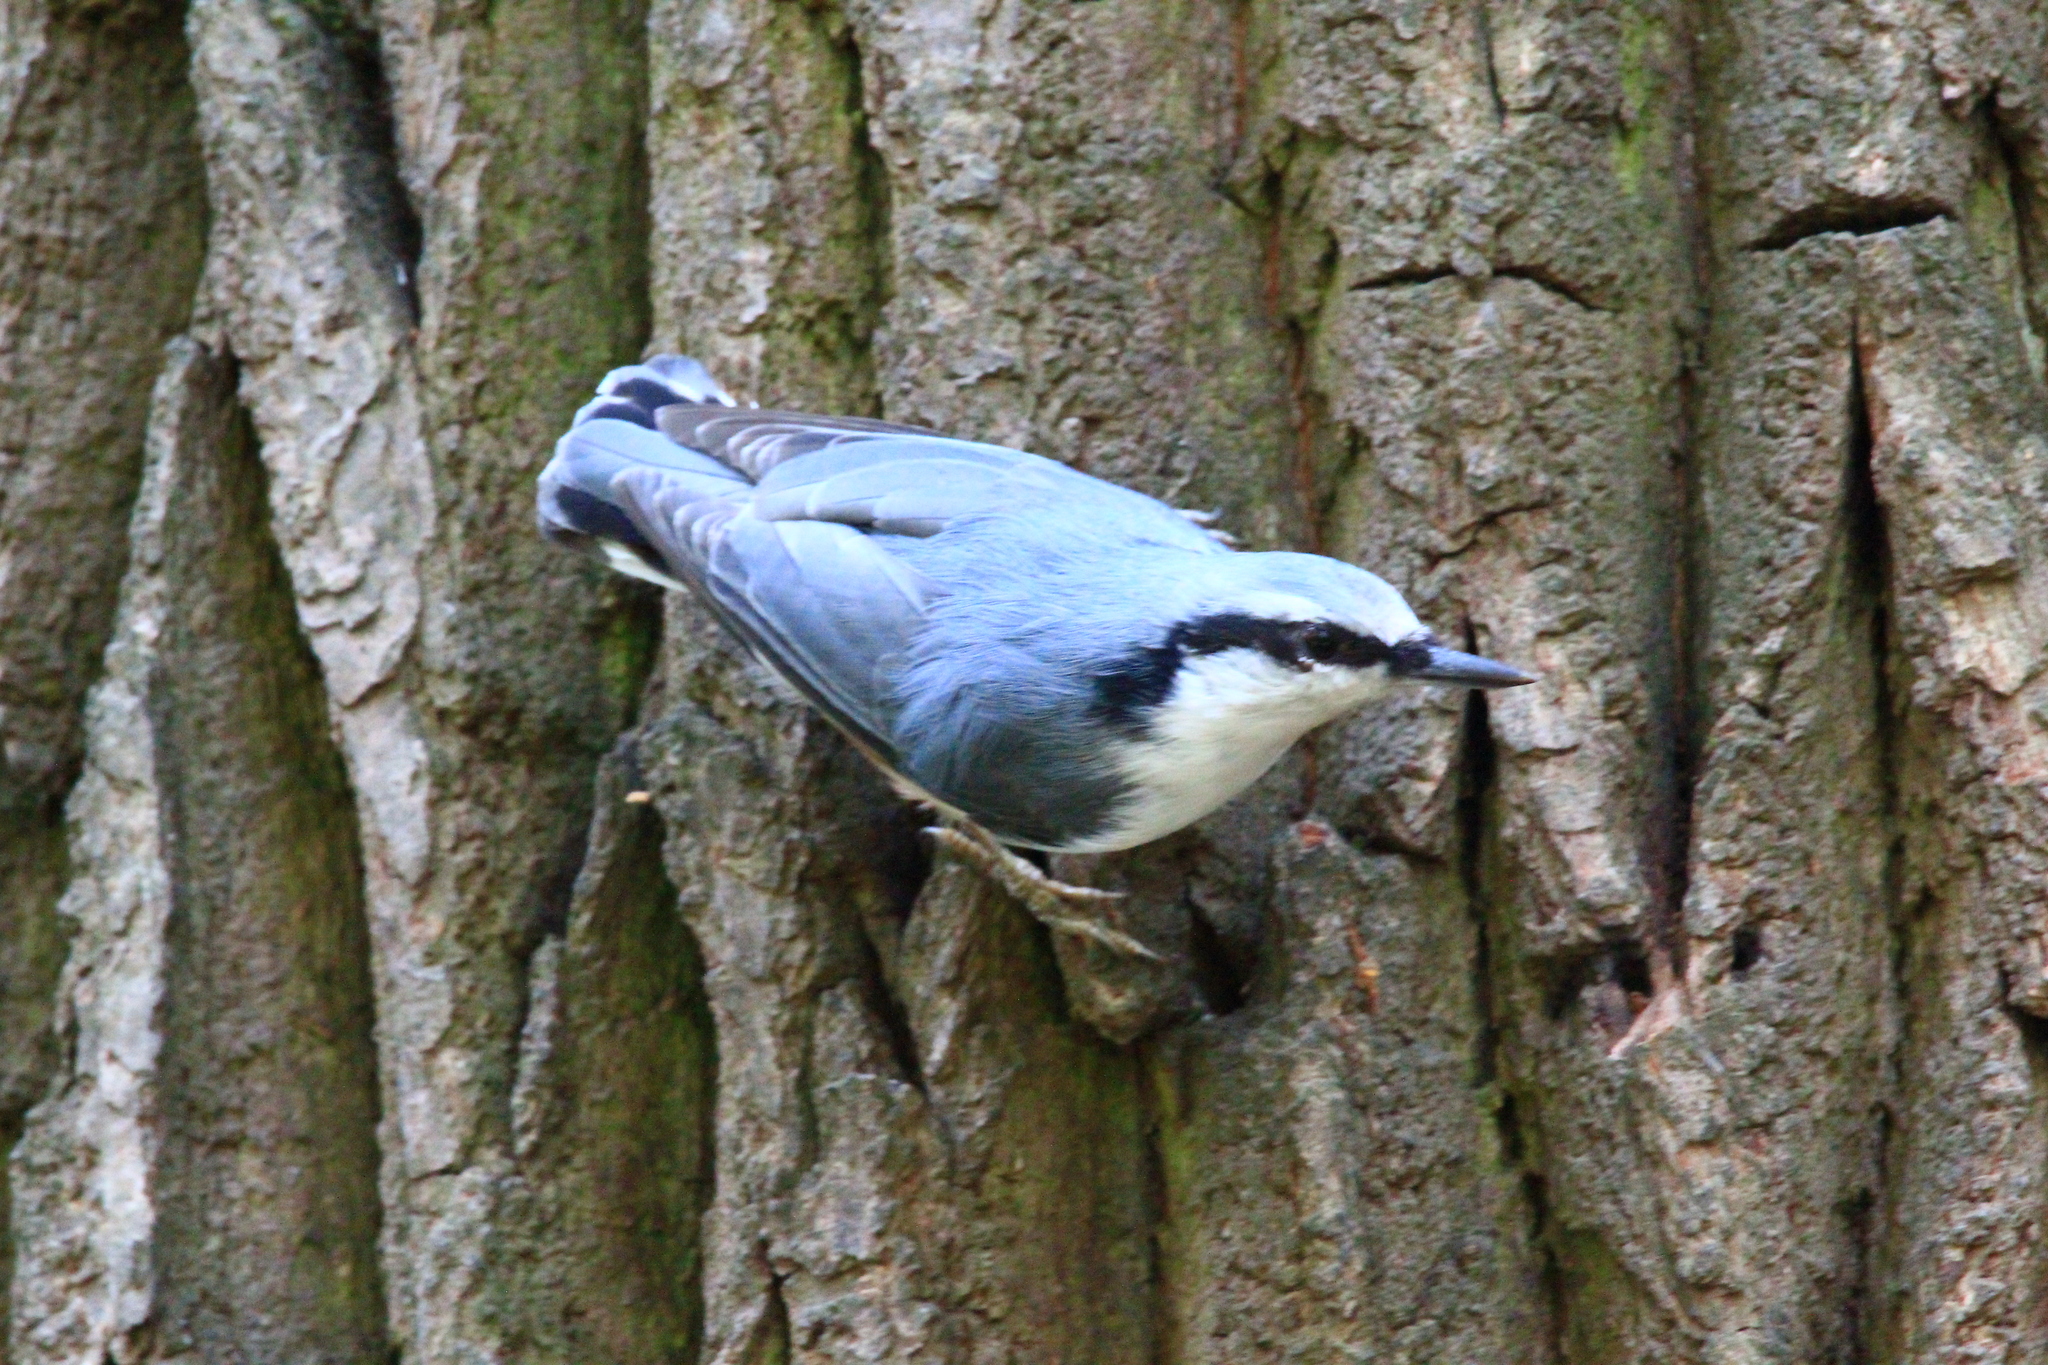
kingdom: Animalia
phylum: Chordata
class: Aves
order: Passeriformes
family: Sittidae
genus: Sitta
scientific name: Sitta europaea
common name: Eurasian nuthatch
